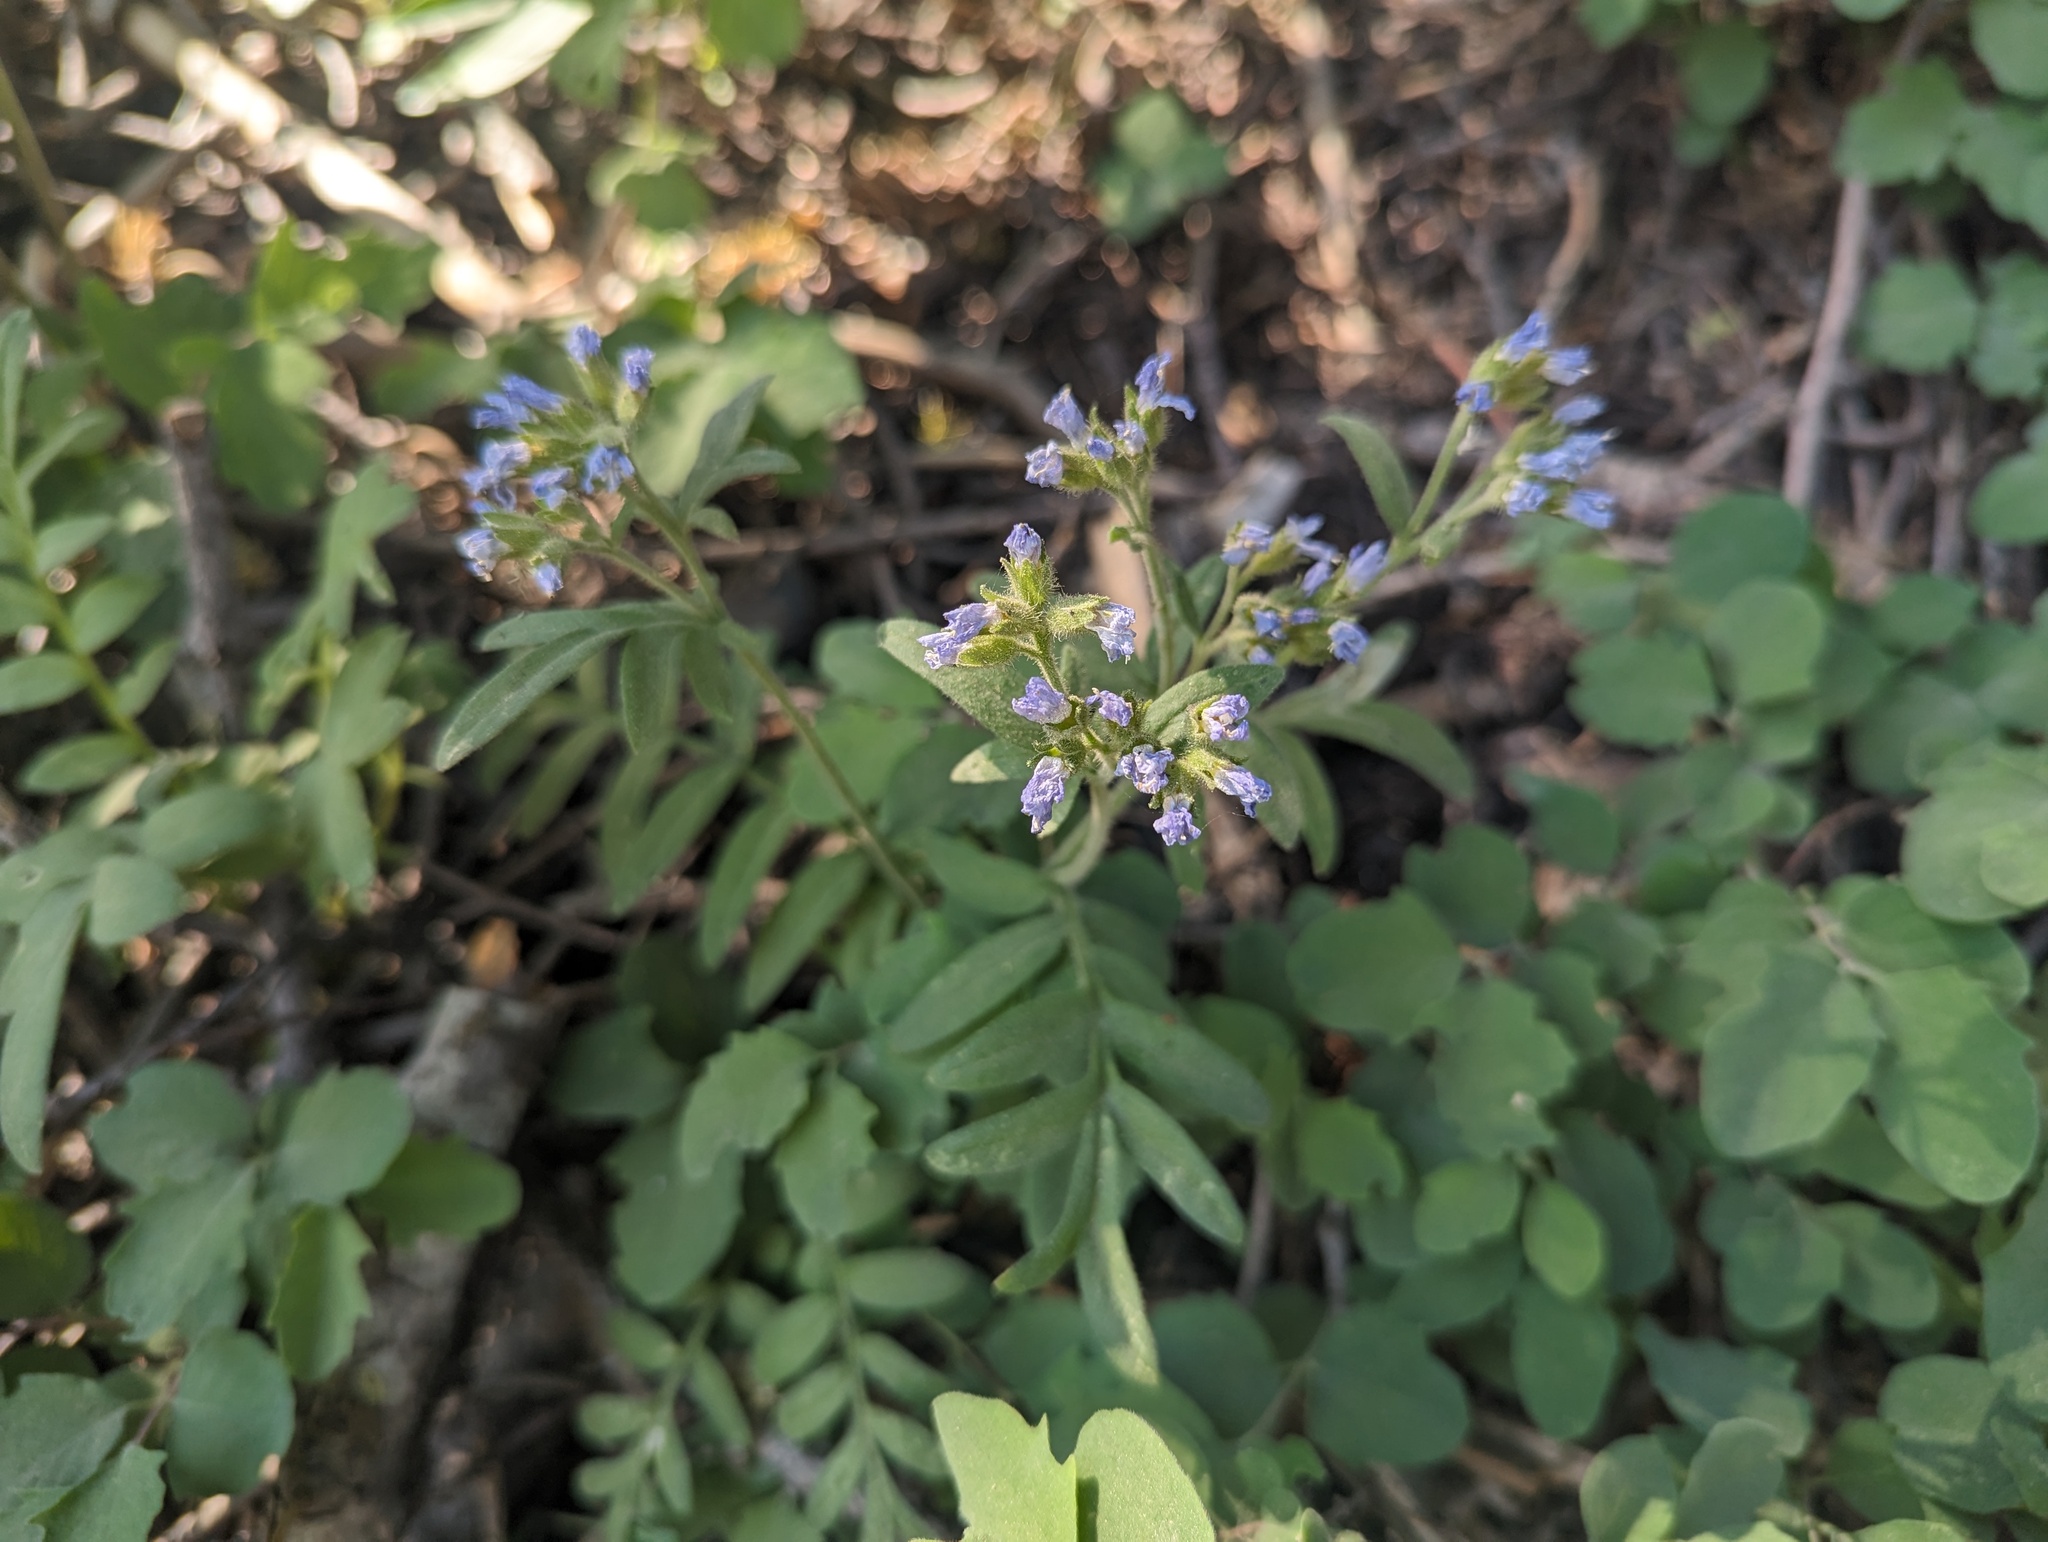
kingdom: Plantae
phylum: Tracheophyta
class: Magnoliopsida
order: Ericales
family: Polemoniaceae
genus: Polemonium
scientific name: Polemonium californicum
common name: California jacob's ladder
